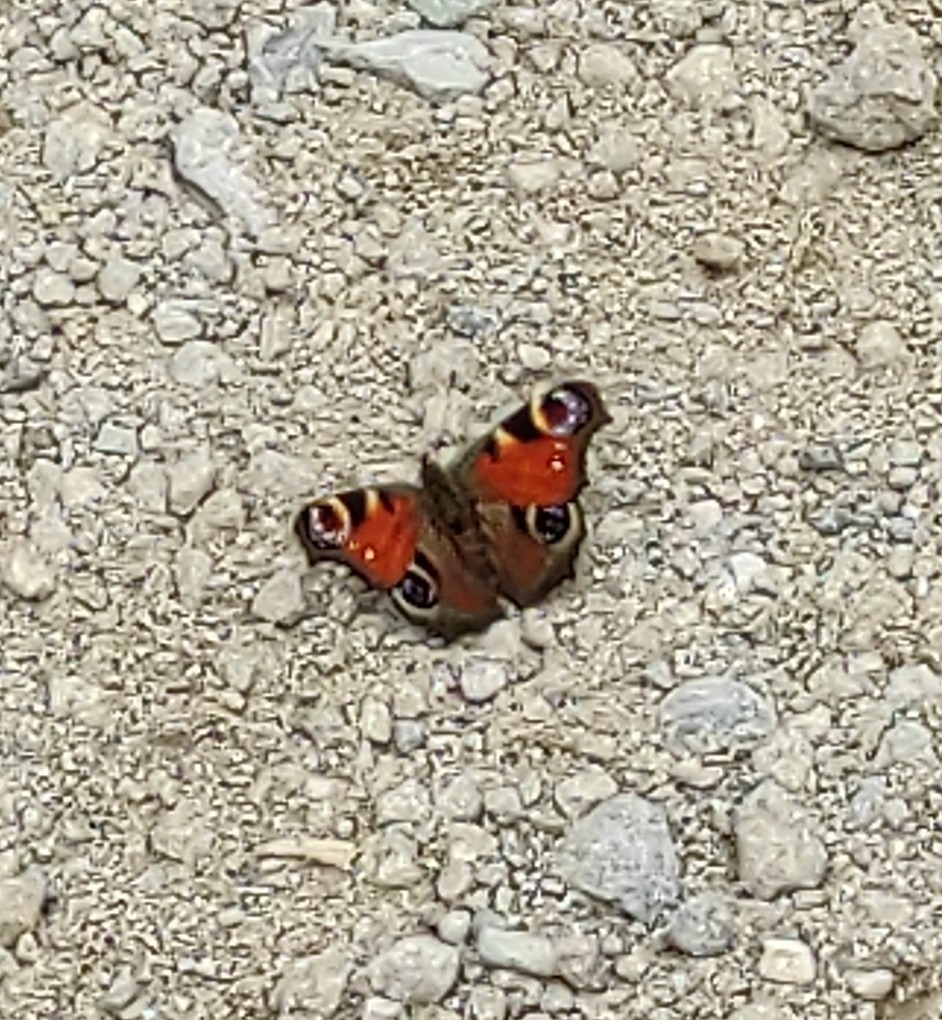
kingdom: Animalia
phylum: Arthropoda
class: Insecta
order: Lepidoptera
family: Nymphalidae
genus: Aglais
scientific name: Aglais io
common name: Peacock
